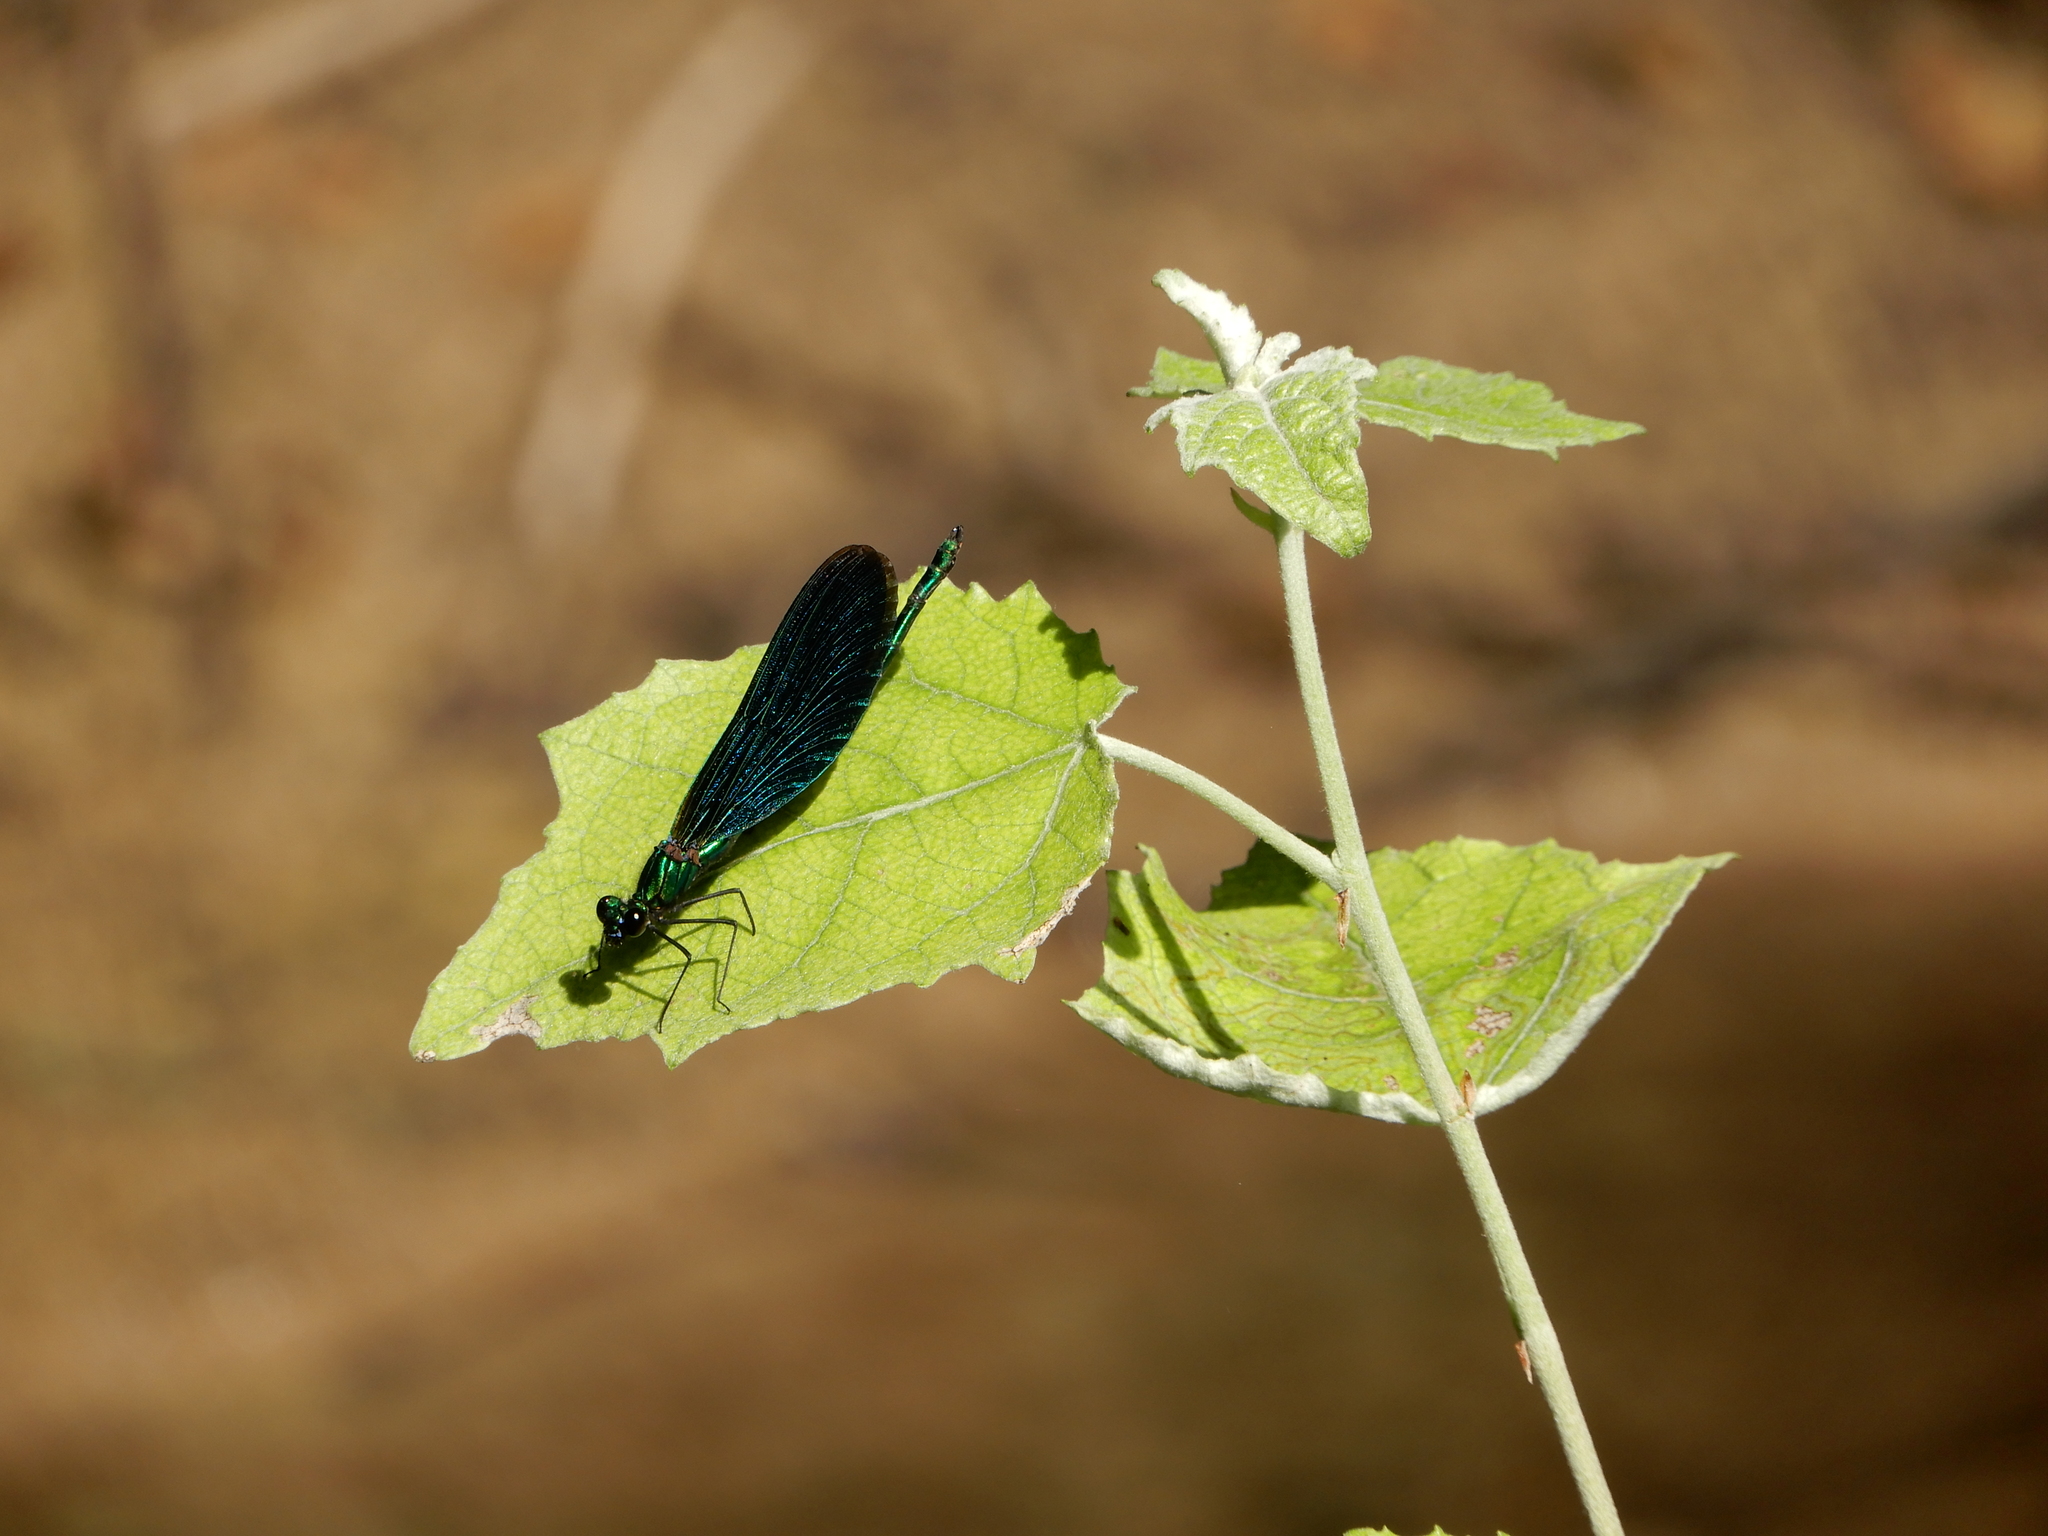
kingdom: Animalia
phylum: Arthropoda
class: Insecta
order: Odonata
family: Calopterygidae
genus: Calopteryx
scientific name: Calopteryx virgo
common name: Beautiful demoiselle
